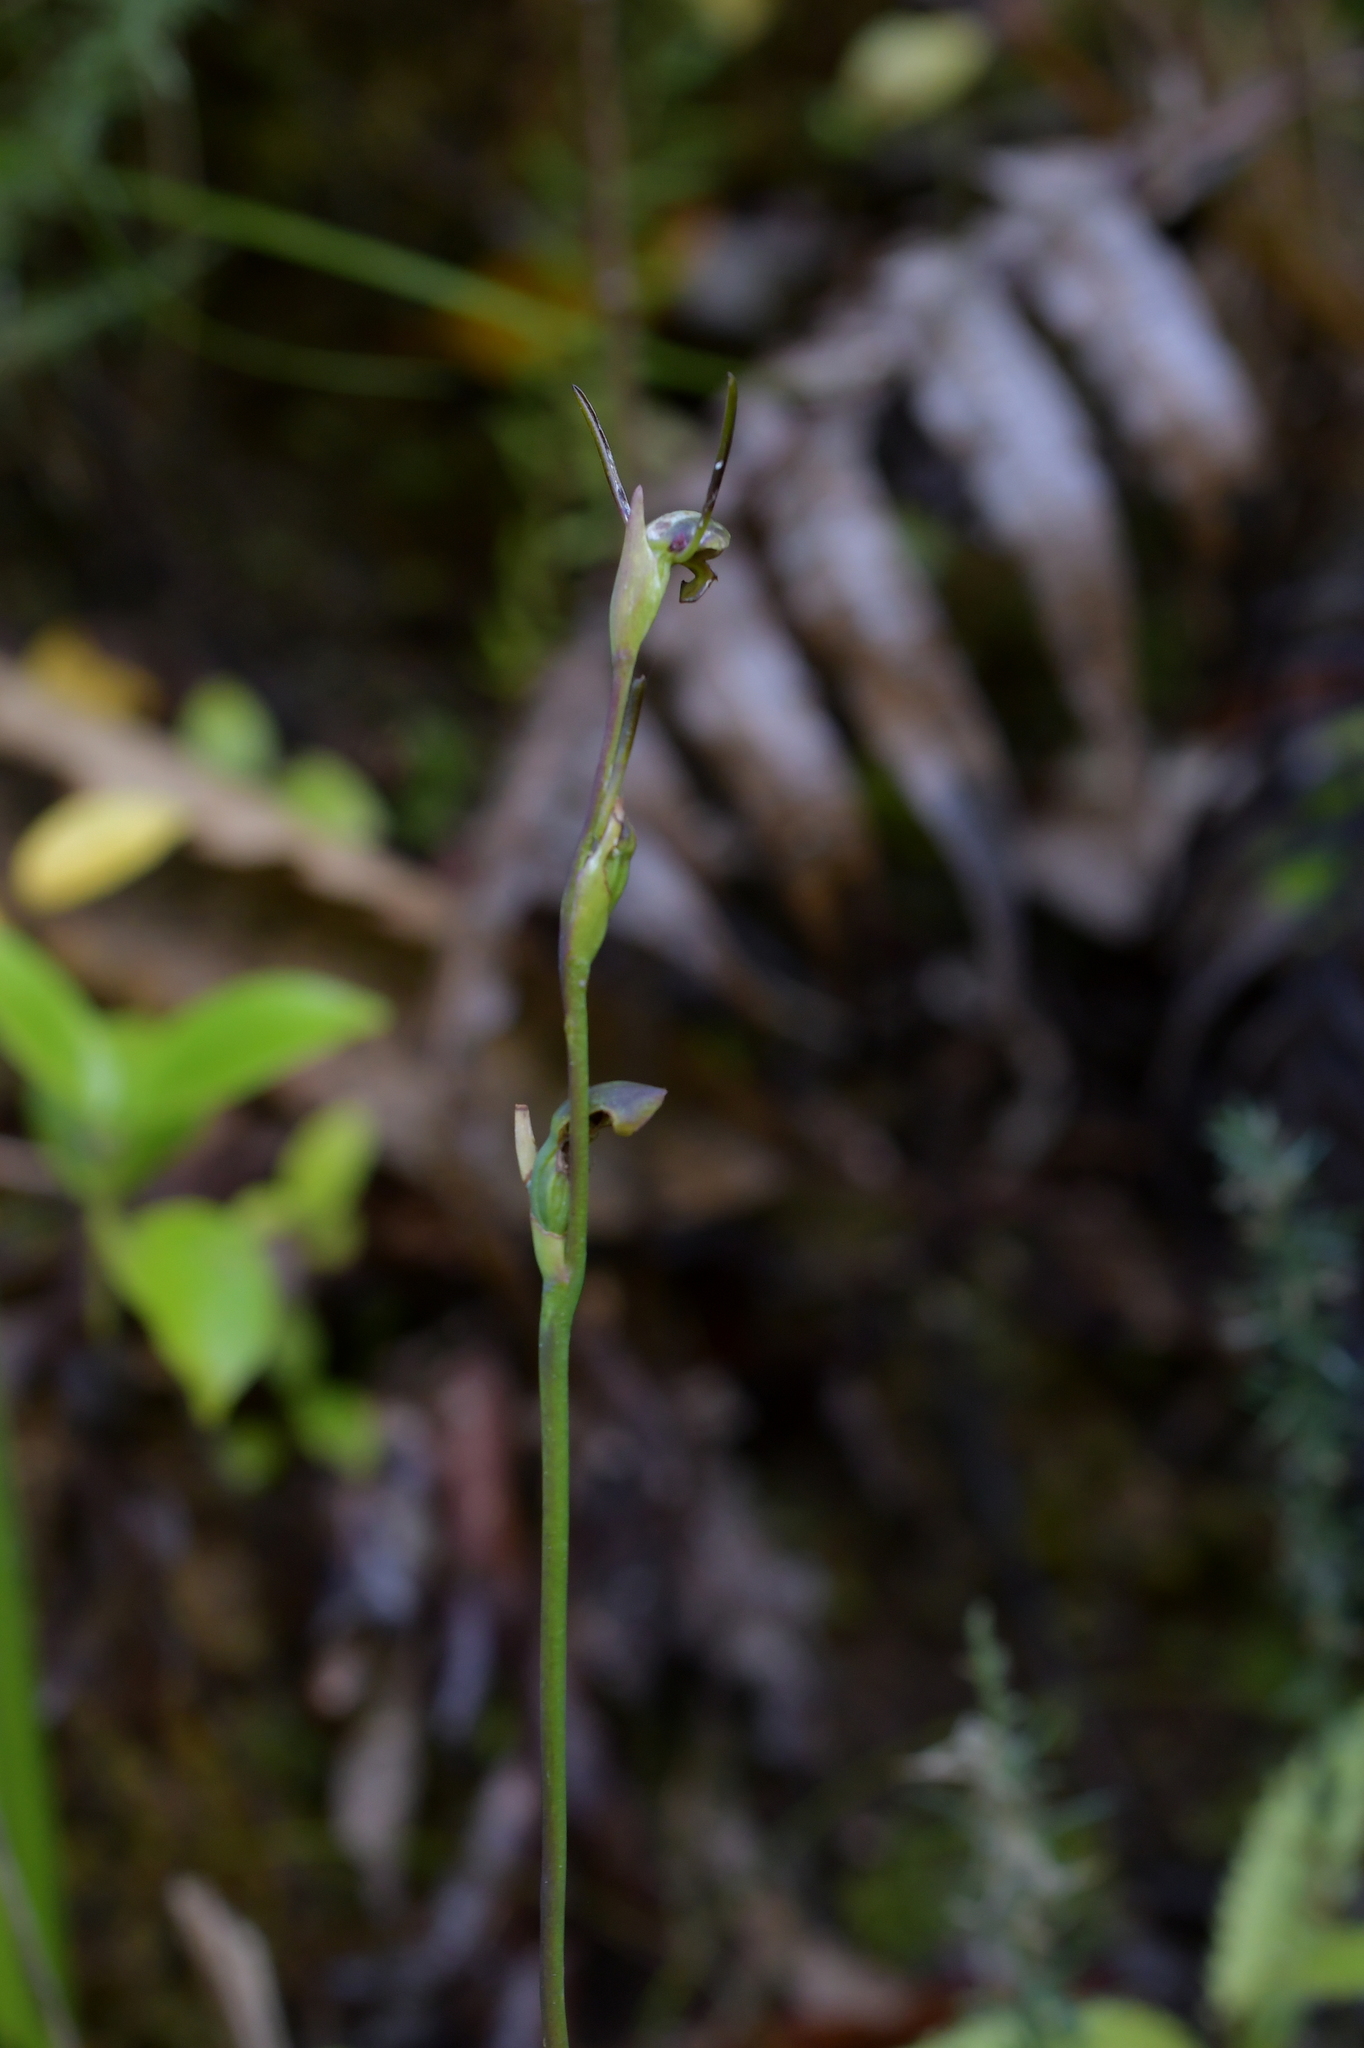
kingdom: Plantae
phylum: Tracheophyta
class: Liliopsida
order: Asparagales
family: Orchidaceae
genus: Orthoceras
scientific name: Orthoceras novae-zeelandiae
